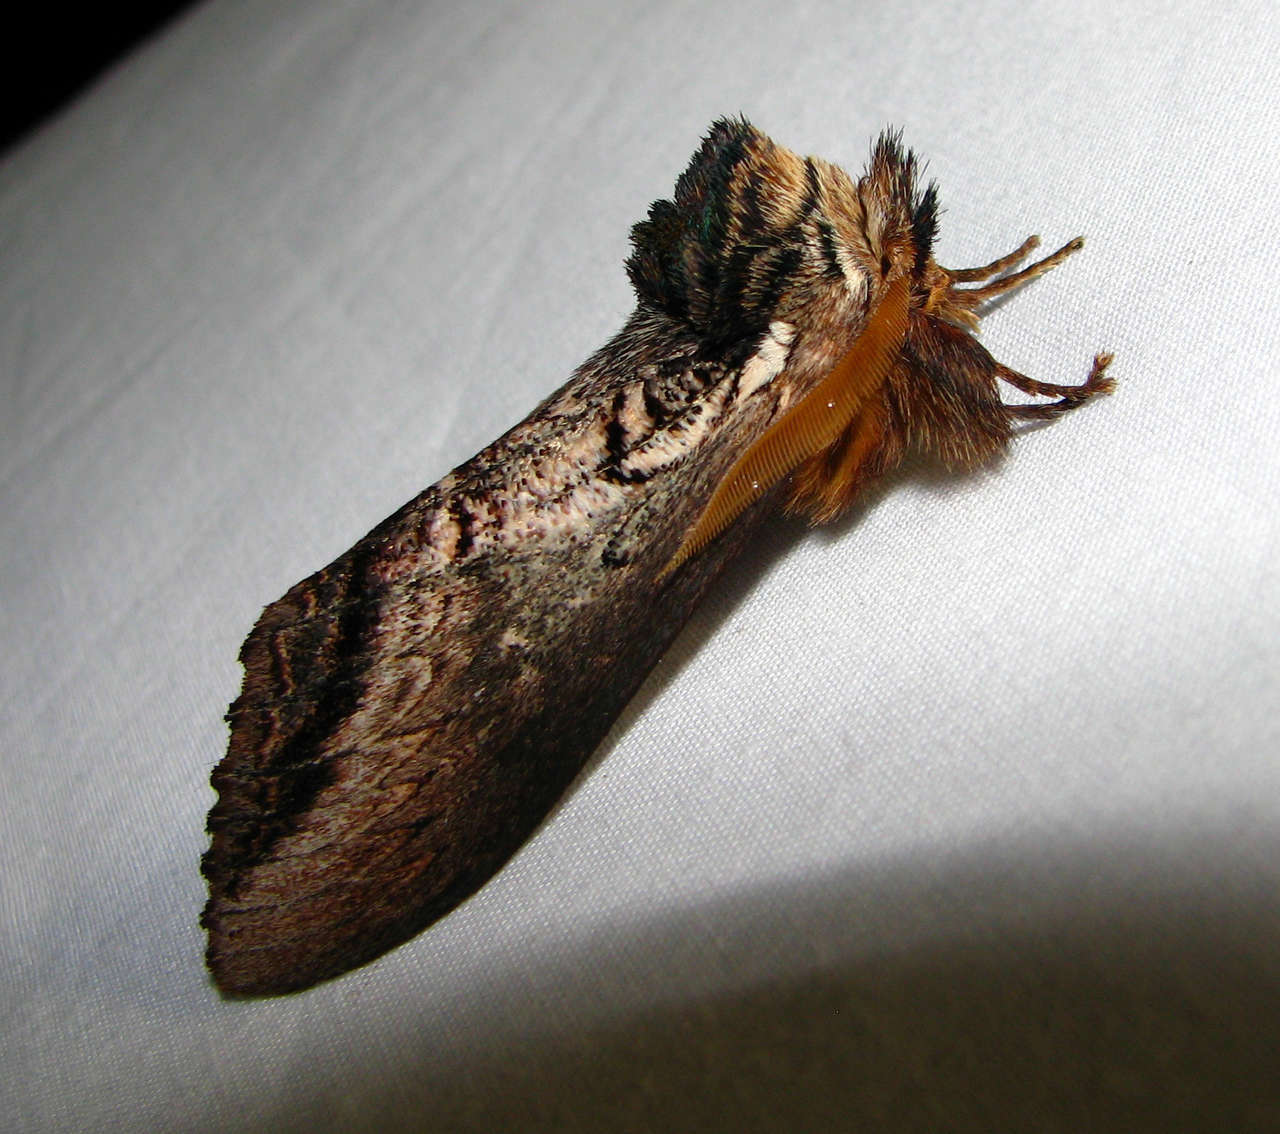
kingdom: Animalia
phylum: Arthropoda
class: Insecta
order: Lepidoptera
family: Notodontidae
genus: Hylaeora
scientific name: Hylaeora eucalypti
